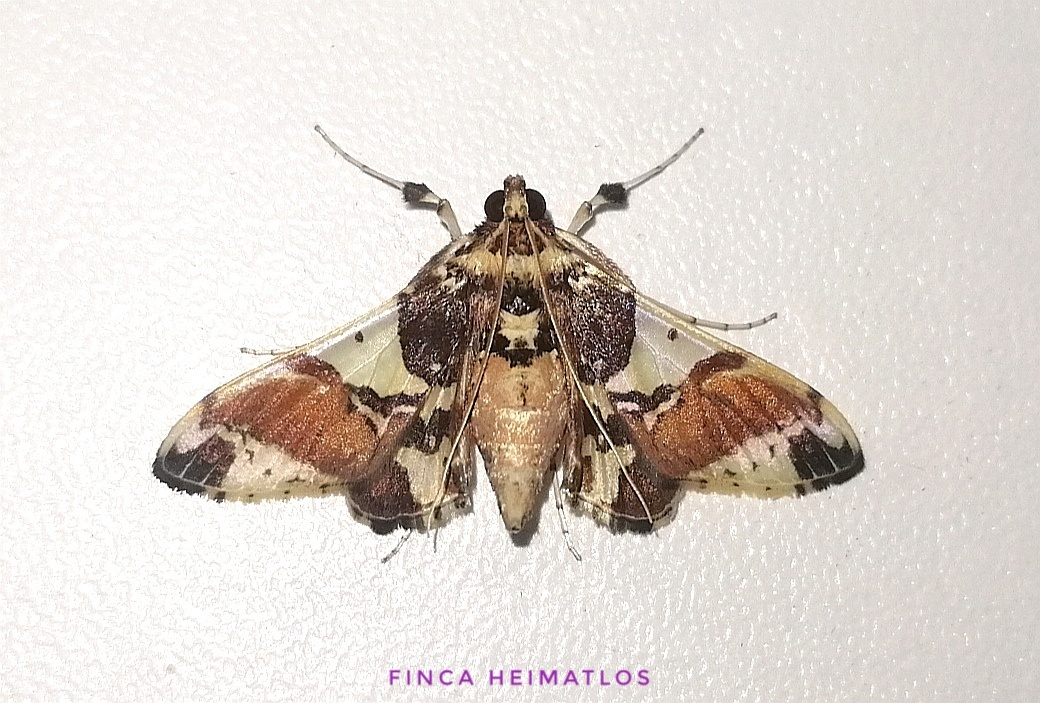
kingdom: Animalia
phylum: Arthropoda
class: Insecta
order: Lepidoptera
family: Crambidae
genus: Syngamilyta
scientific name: Syngamilyta apicolor
